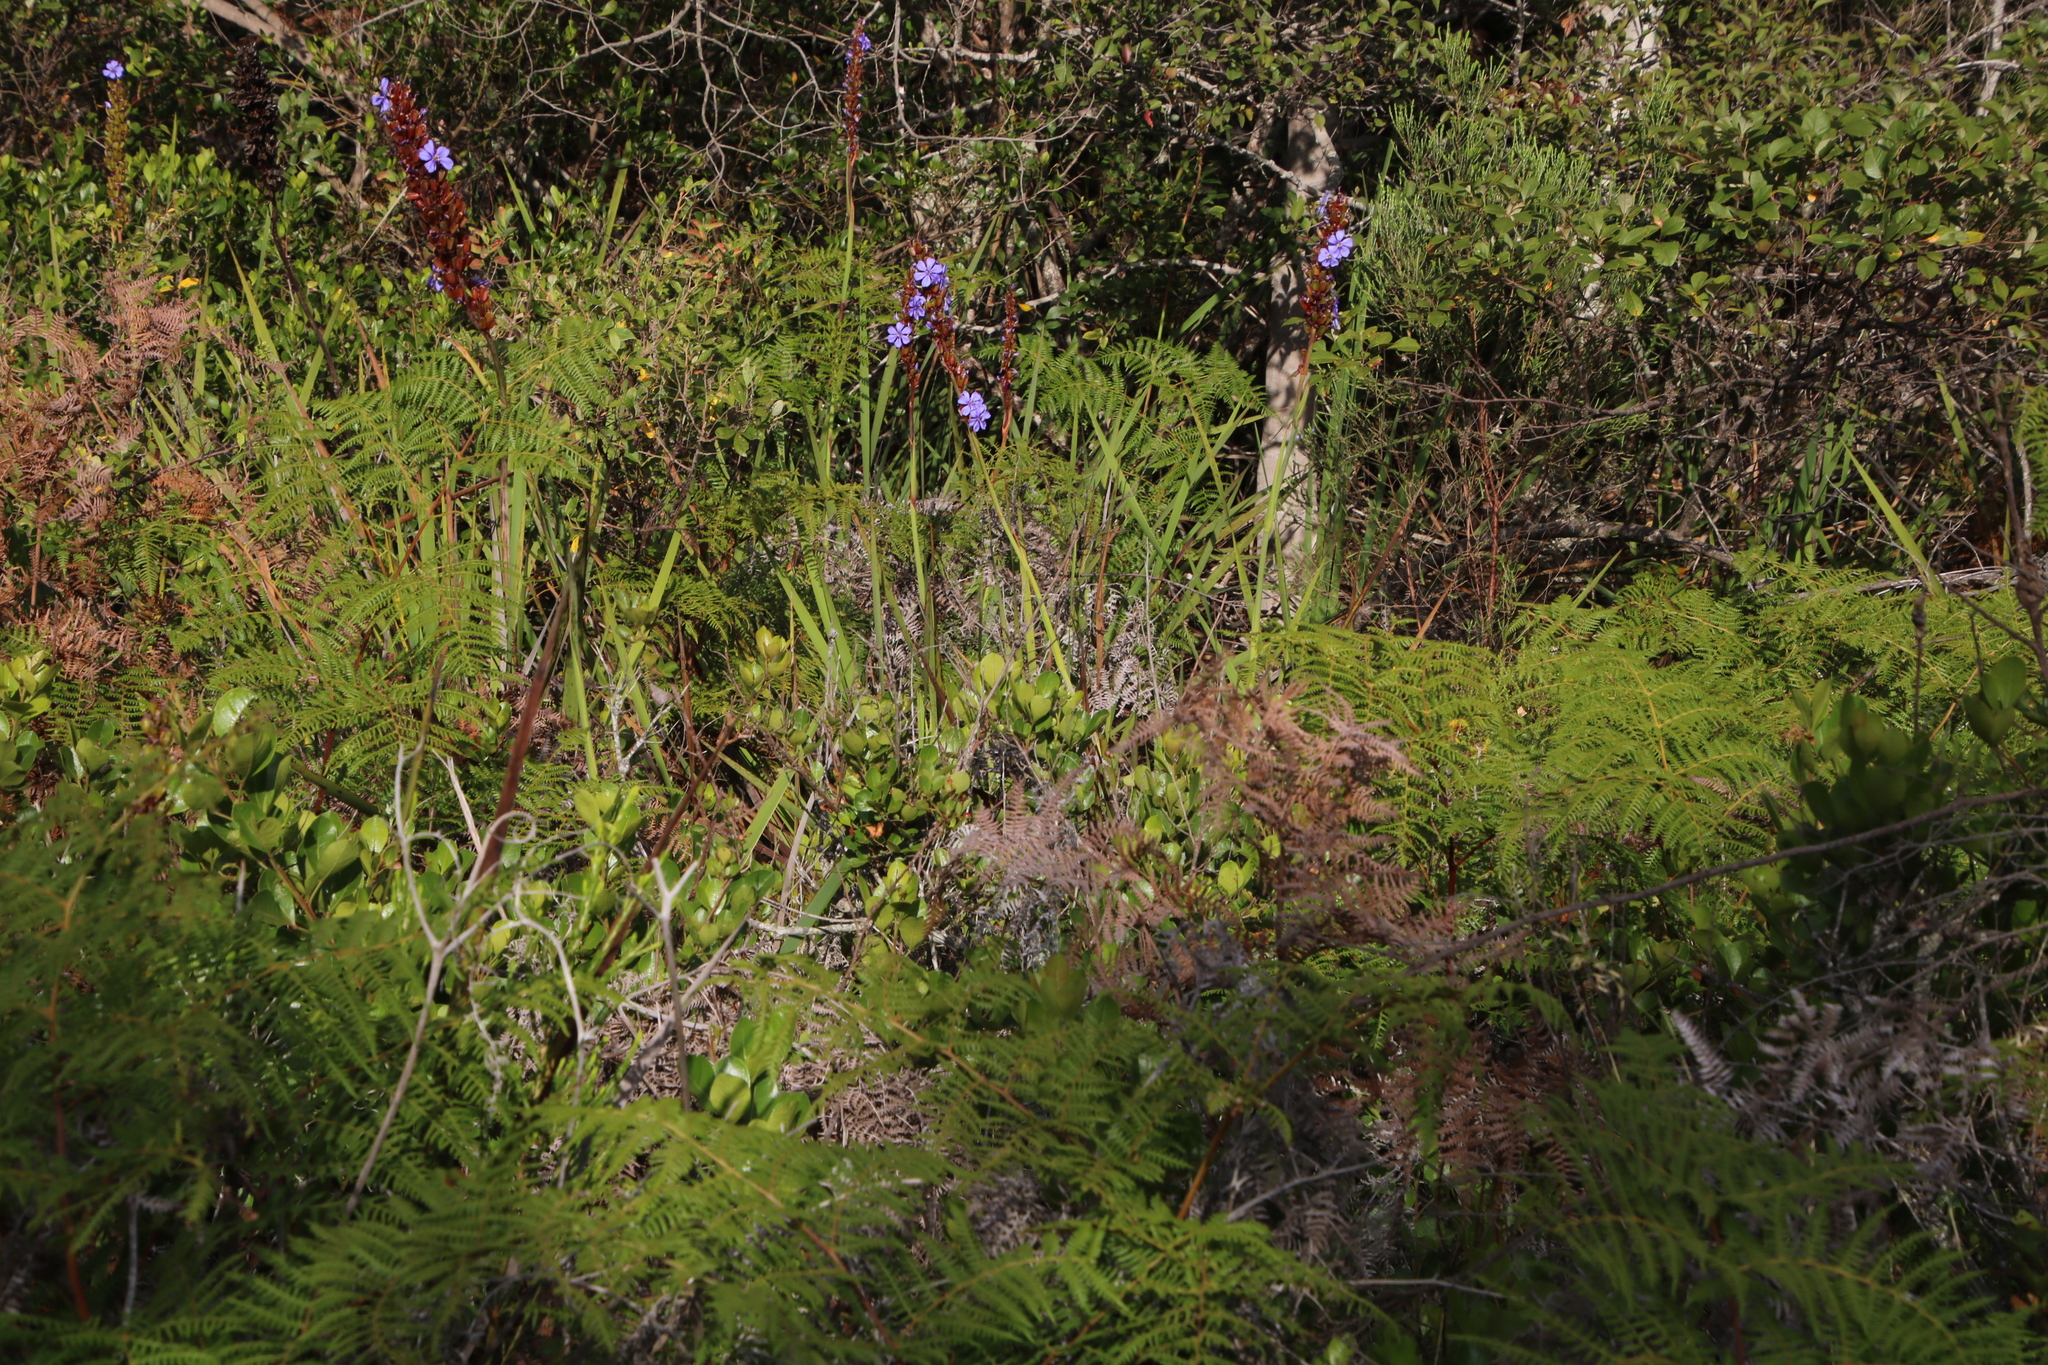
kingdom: Plantae
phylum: Tracheophyta
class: Liliopsida
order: Asparagales
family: Iridaceae
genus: Aristea
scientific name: Aristea bakeri
